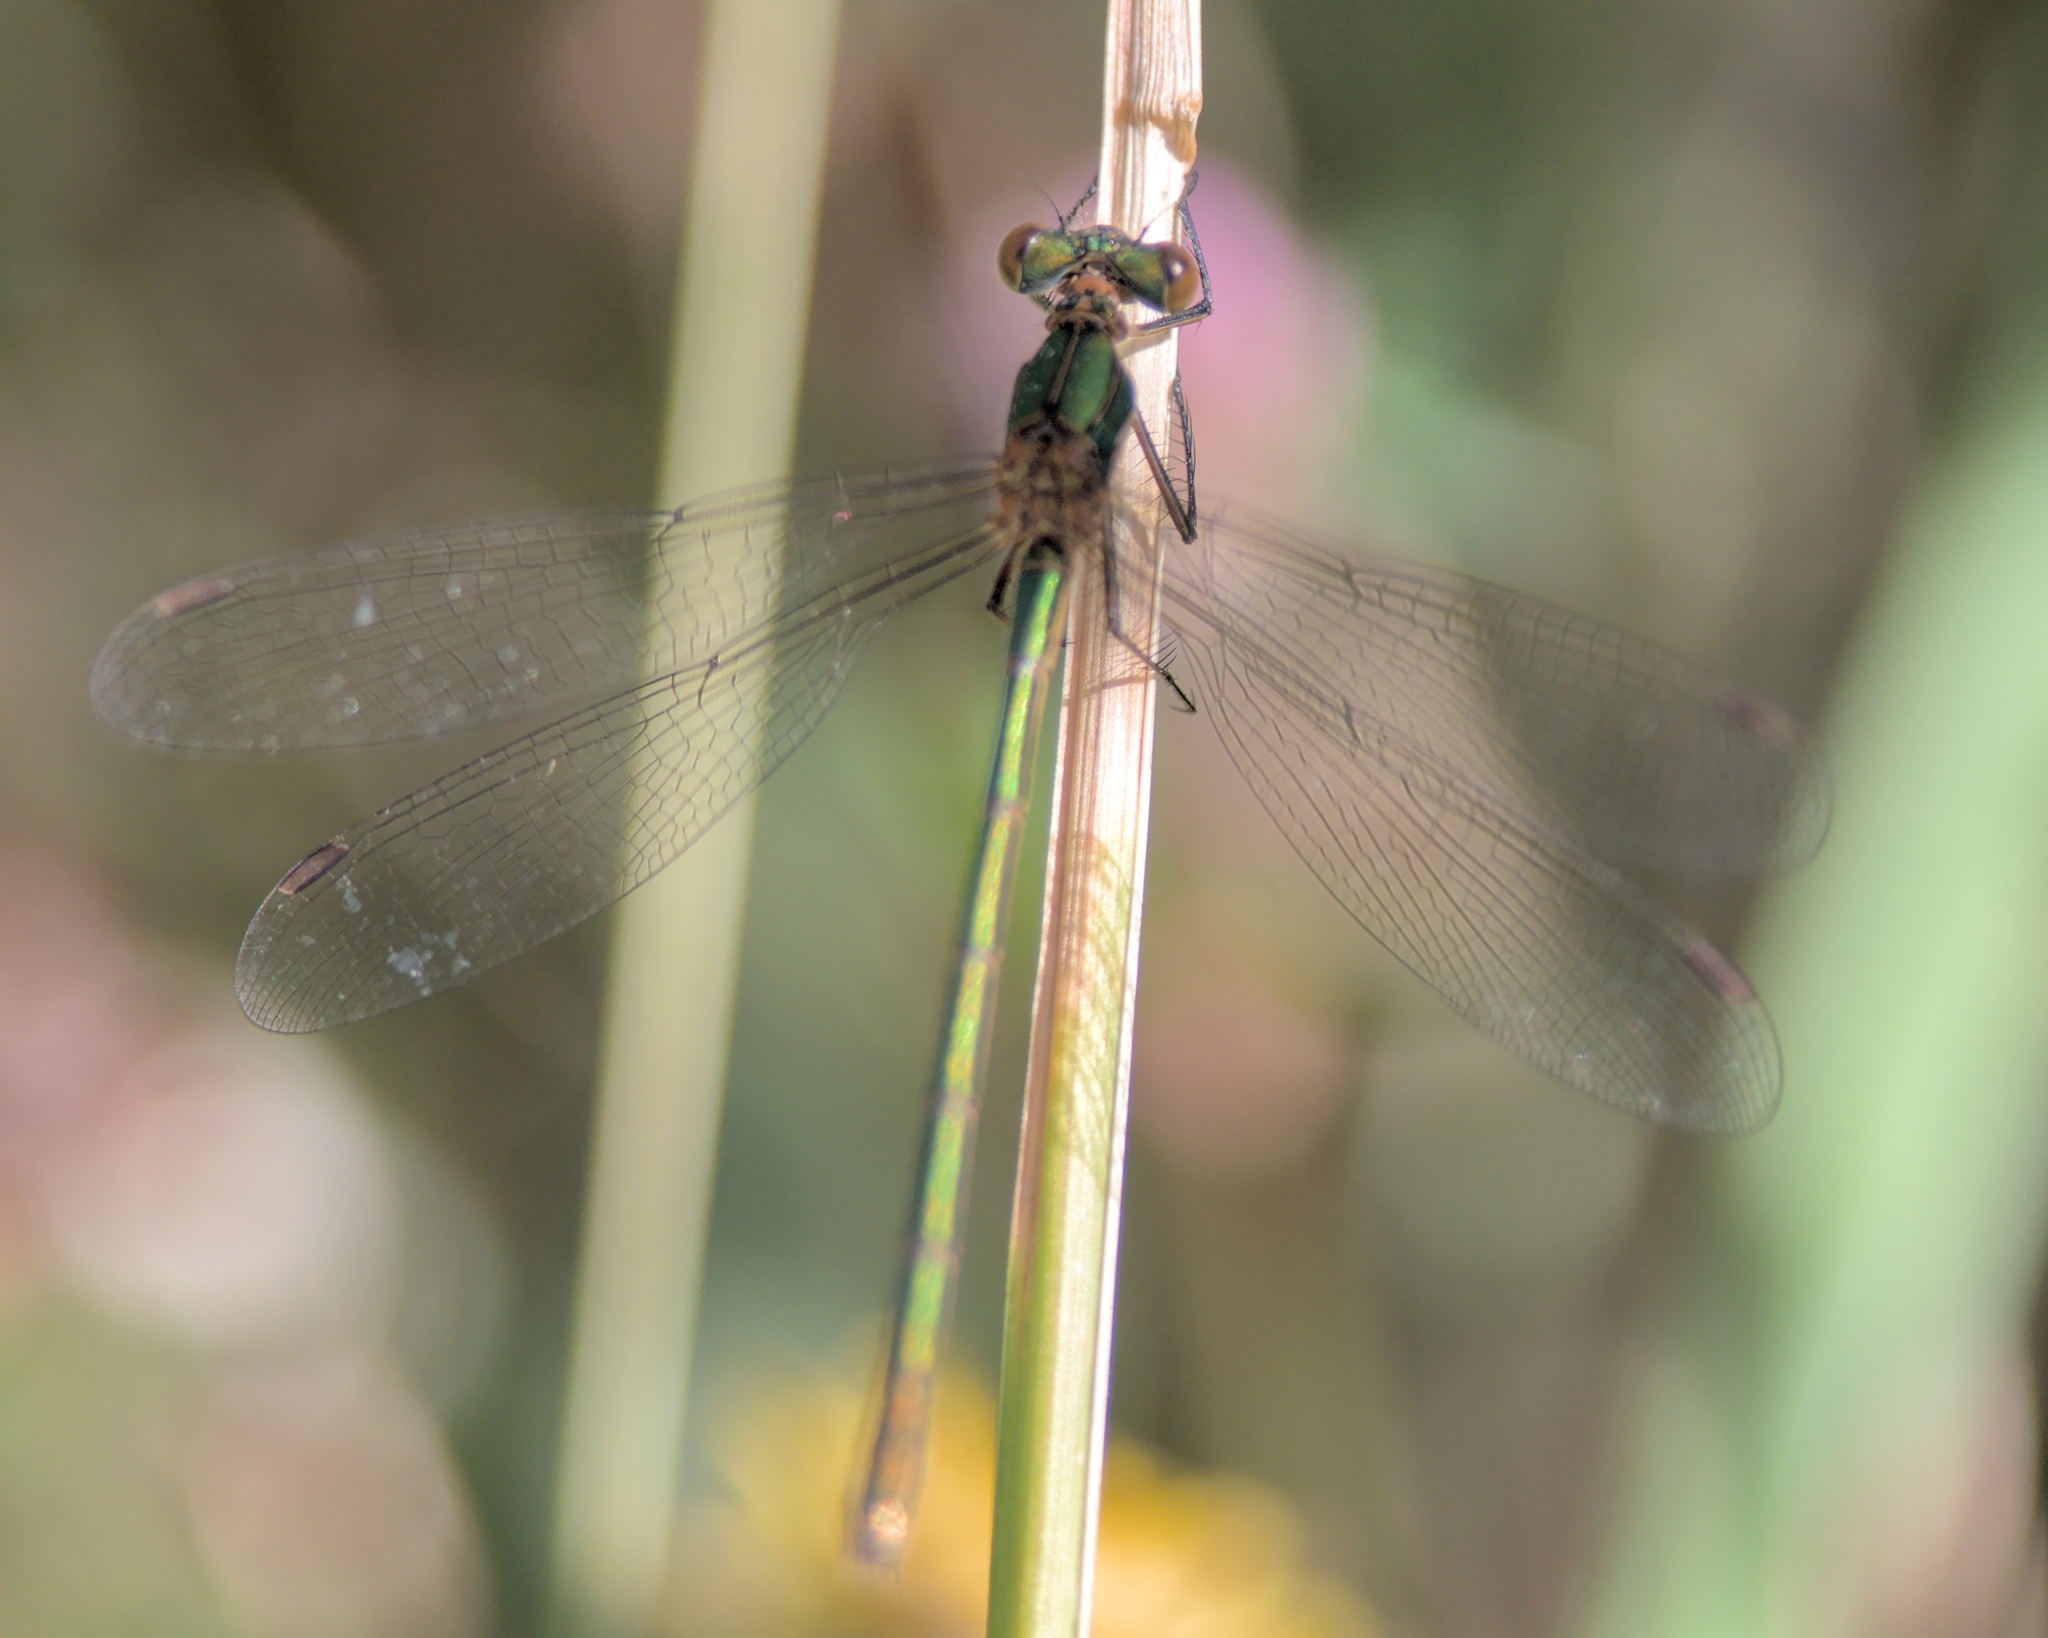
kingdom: Animalia
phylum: Arthropoda
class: Insecta
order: Odonata
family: Lestidae
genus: Lestes
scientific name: Lestes sponsa
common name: Common spreadwing
